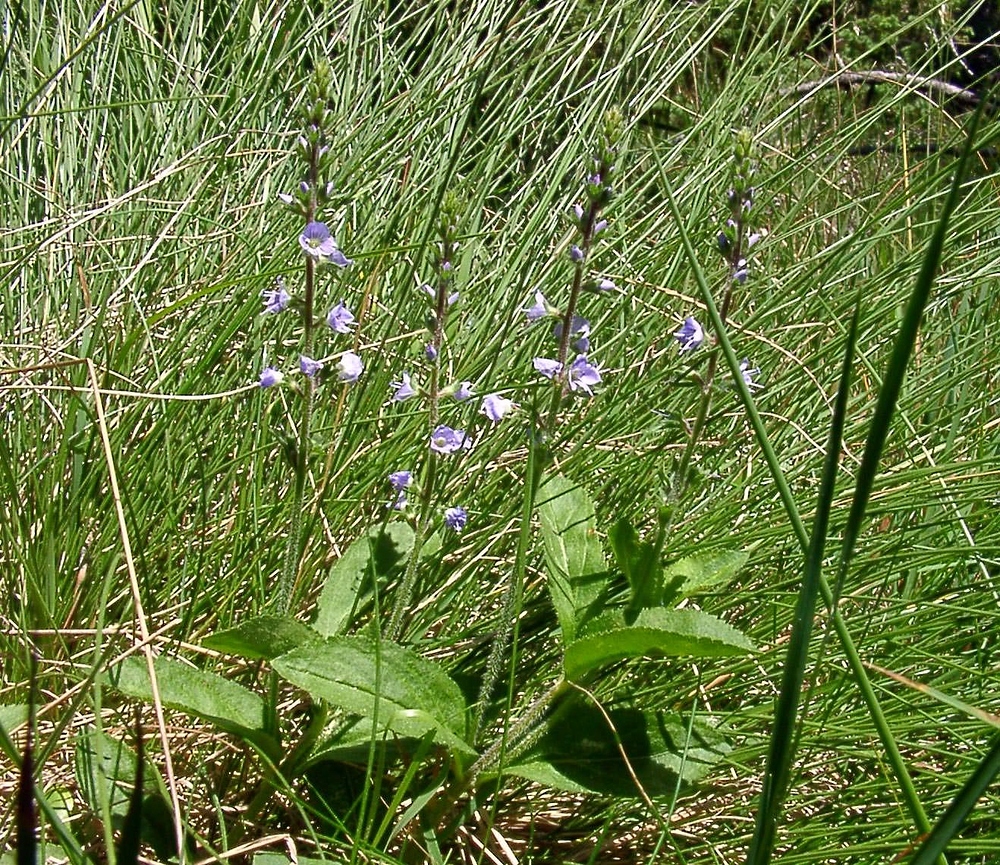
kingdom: Plantae
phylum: Tracheophyta
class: Magnoliopsida
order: Lamiales
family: Plantaginaceae
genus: Veronica
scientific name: Veronica officinalis
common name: Common speedwell
